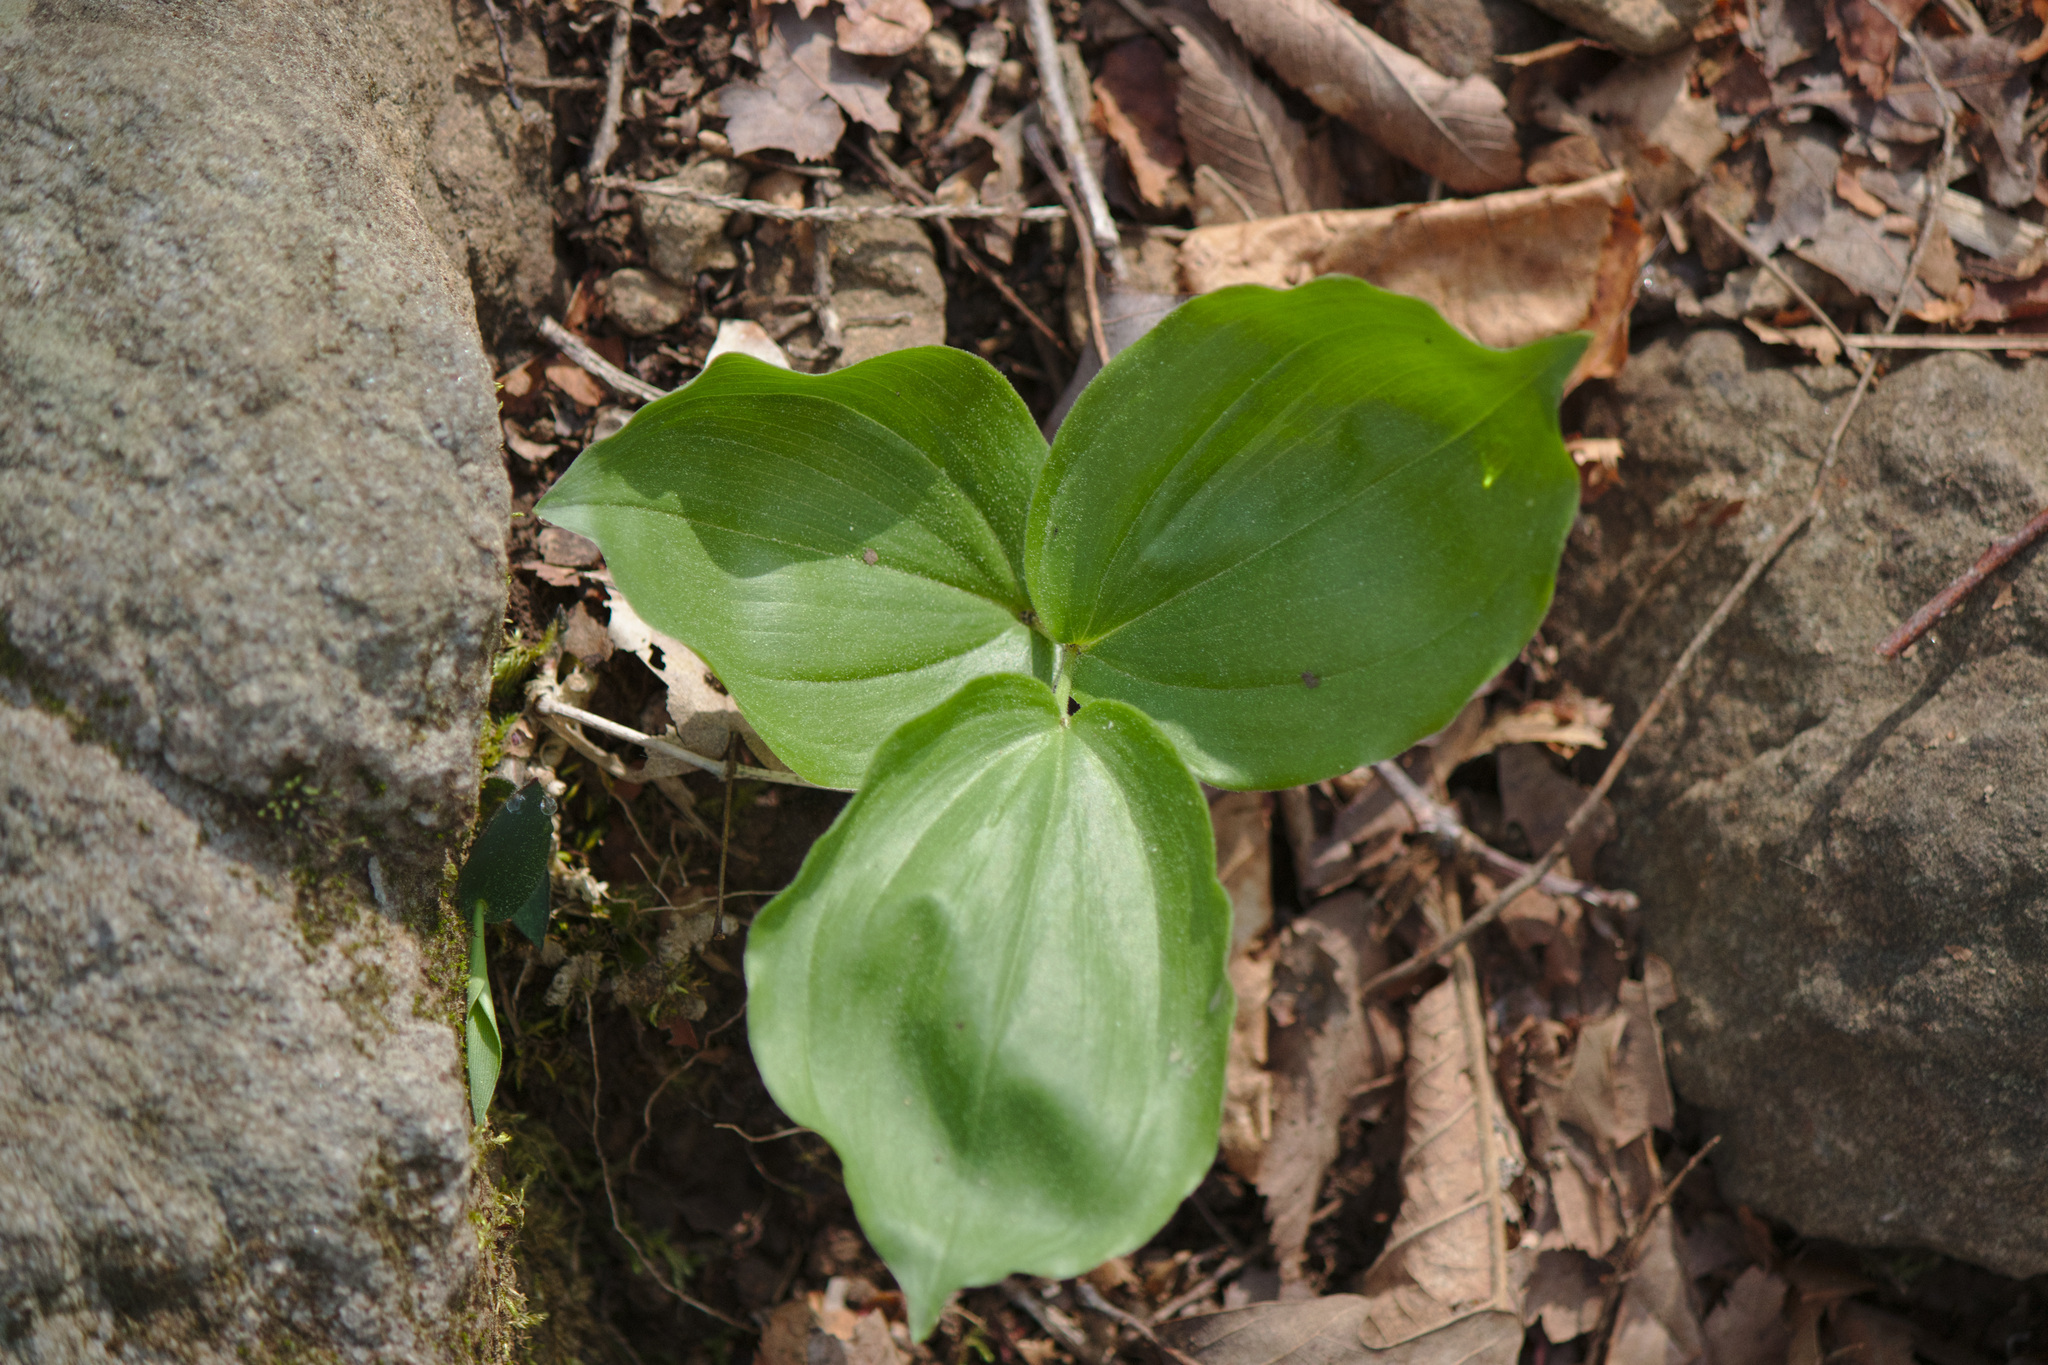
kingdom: Plantae
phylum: Tracheophyta
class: Liliopsida
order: Asparagales
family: Asparagaceae
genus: Maianthemum
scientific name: Maianthemum racemosum
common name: False spikenard
